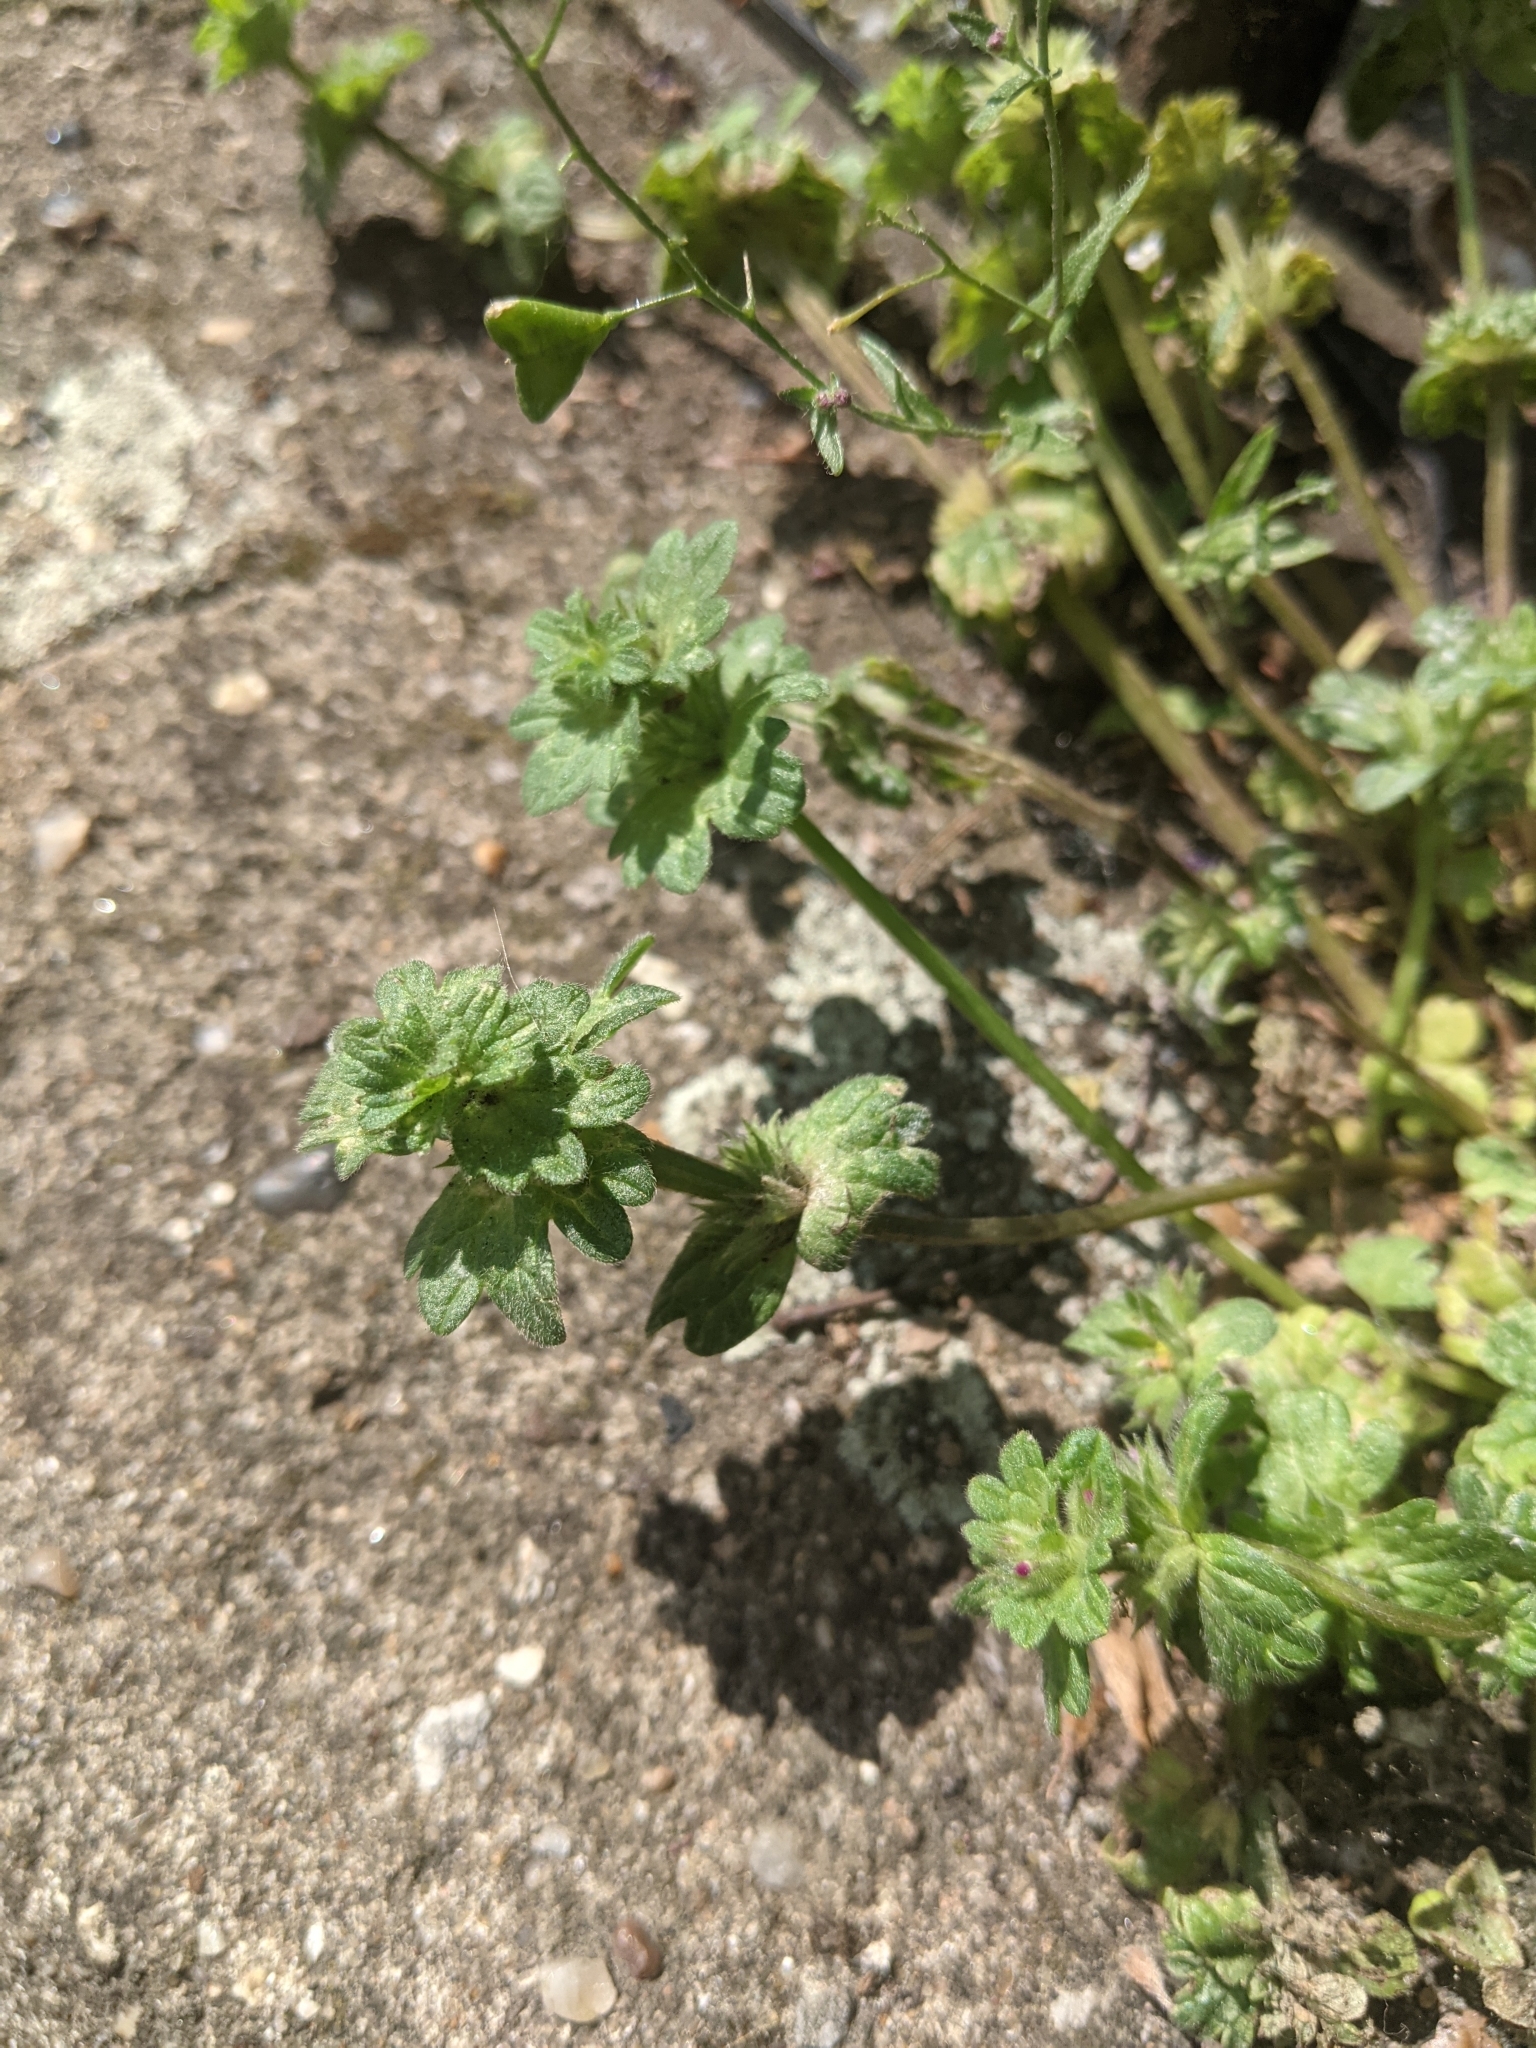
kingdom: Plantae
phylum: Tracheophyta
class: Magnoliopsida
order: Lamiales
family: Lamiaceae
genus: Lamium
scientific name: Lamium amplexicaule
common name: Henbit dead-nettle
